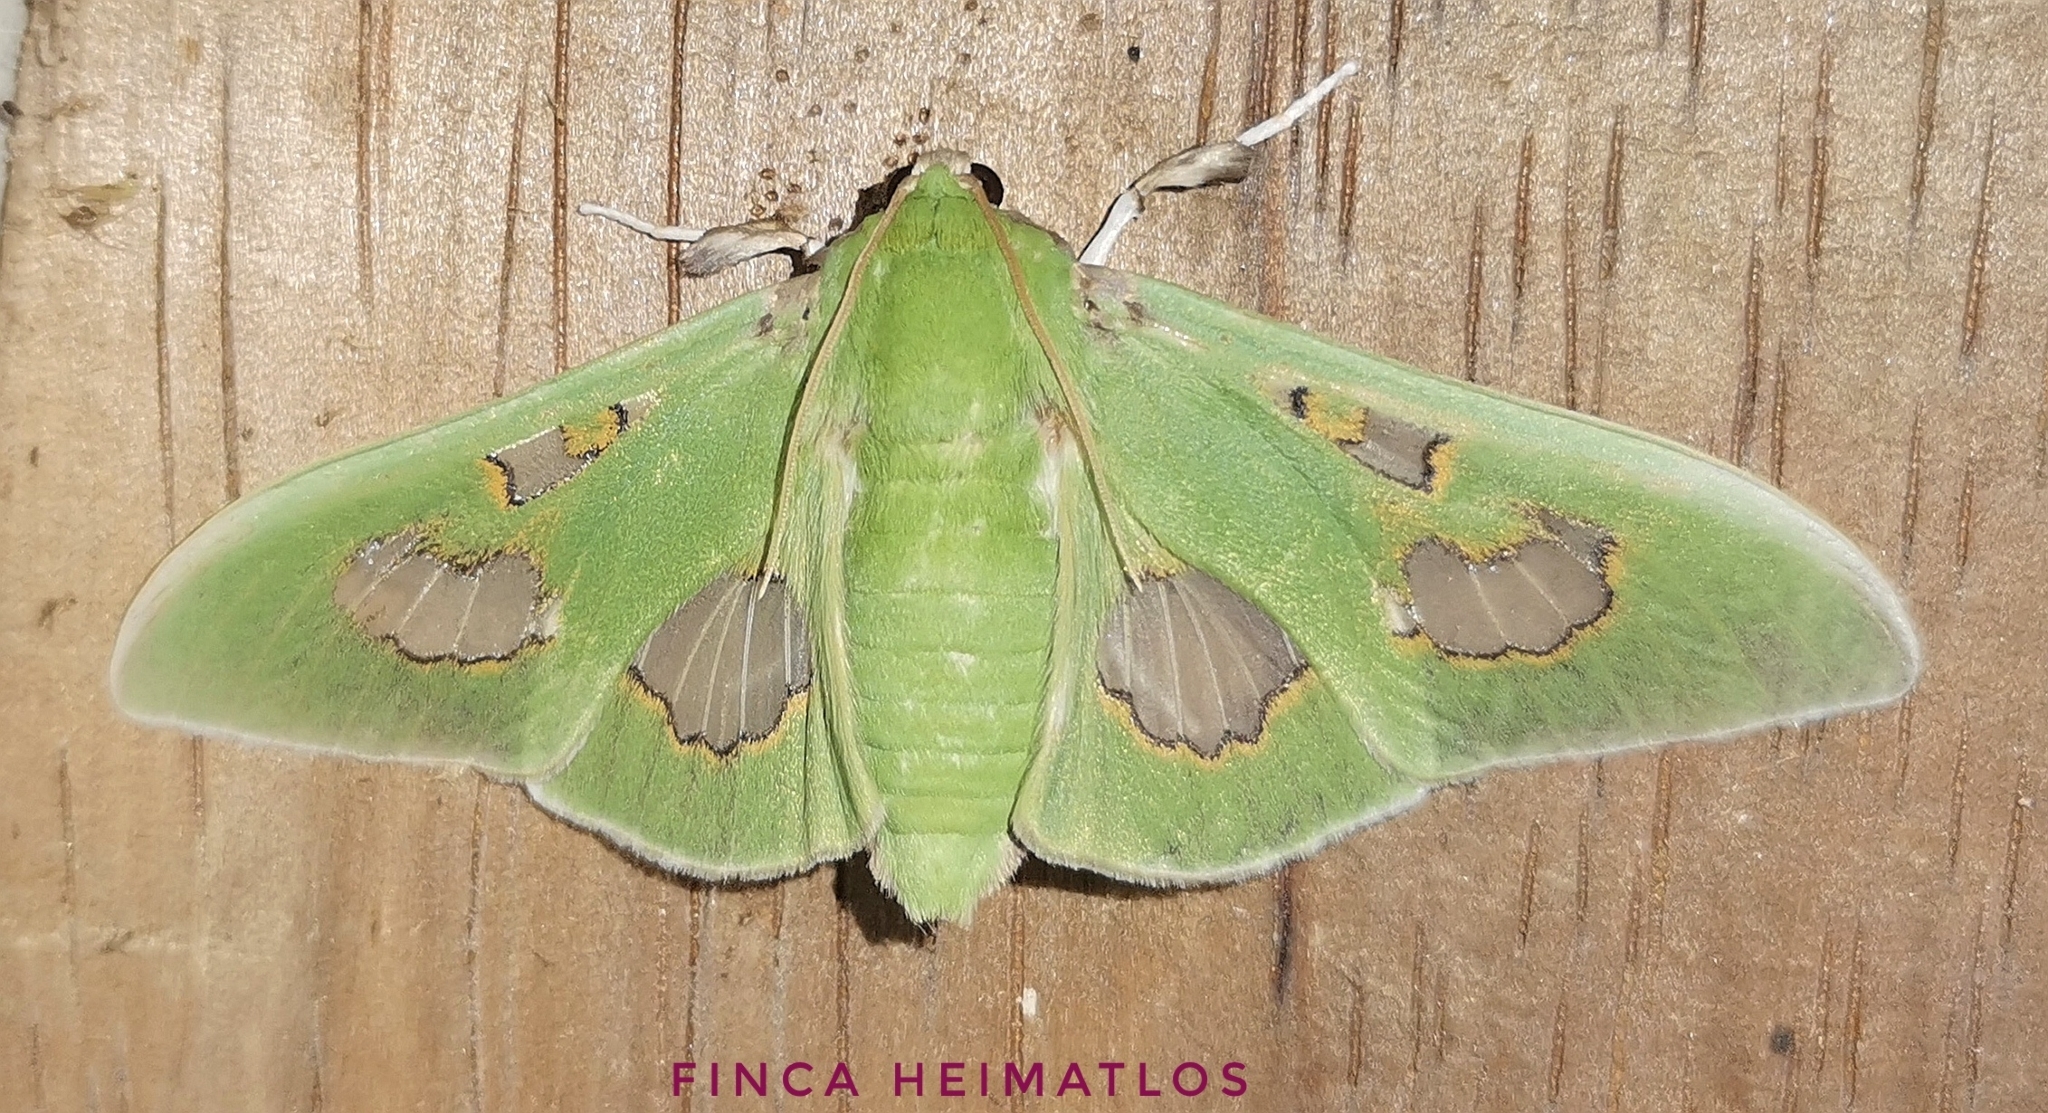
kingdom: Animalia
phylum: Arthropoda
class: Insecta
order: Lepidoptera
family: Crambidae
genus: Siga
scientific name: Siga liris
